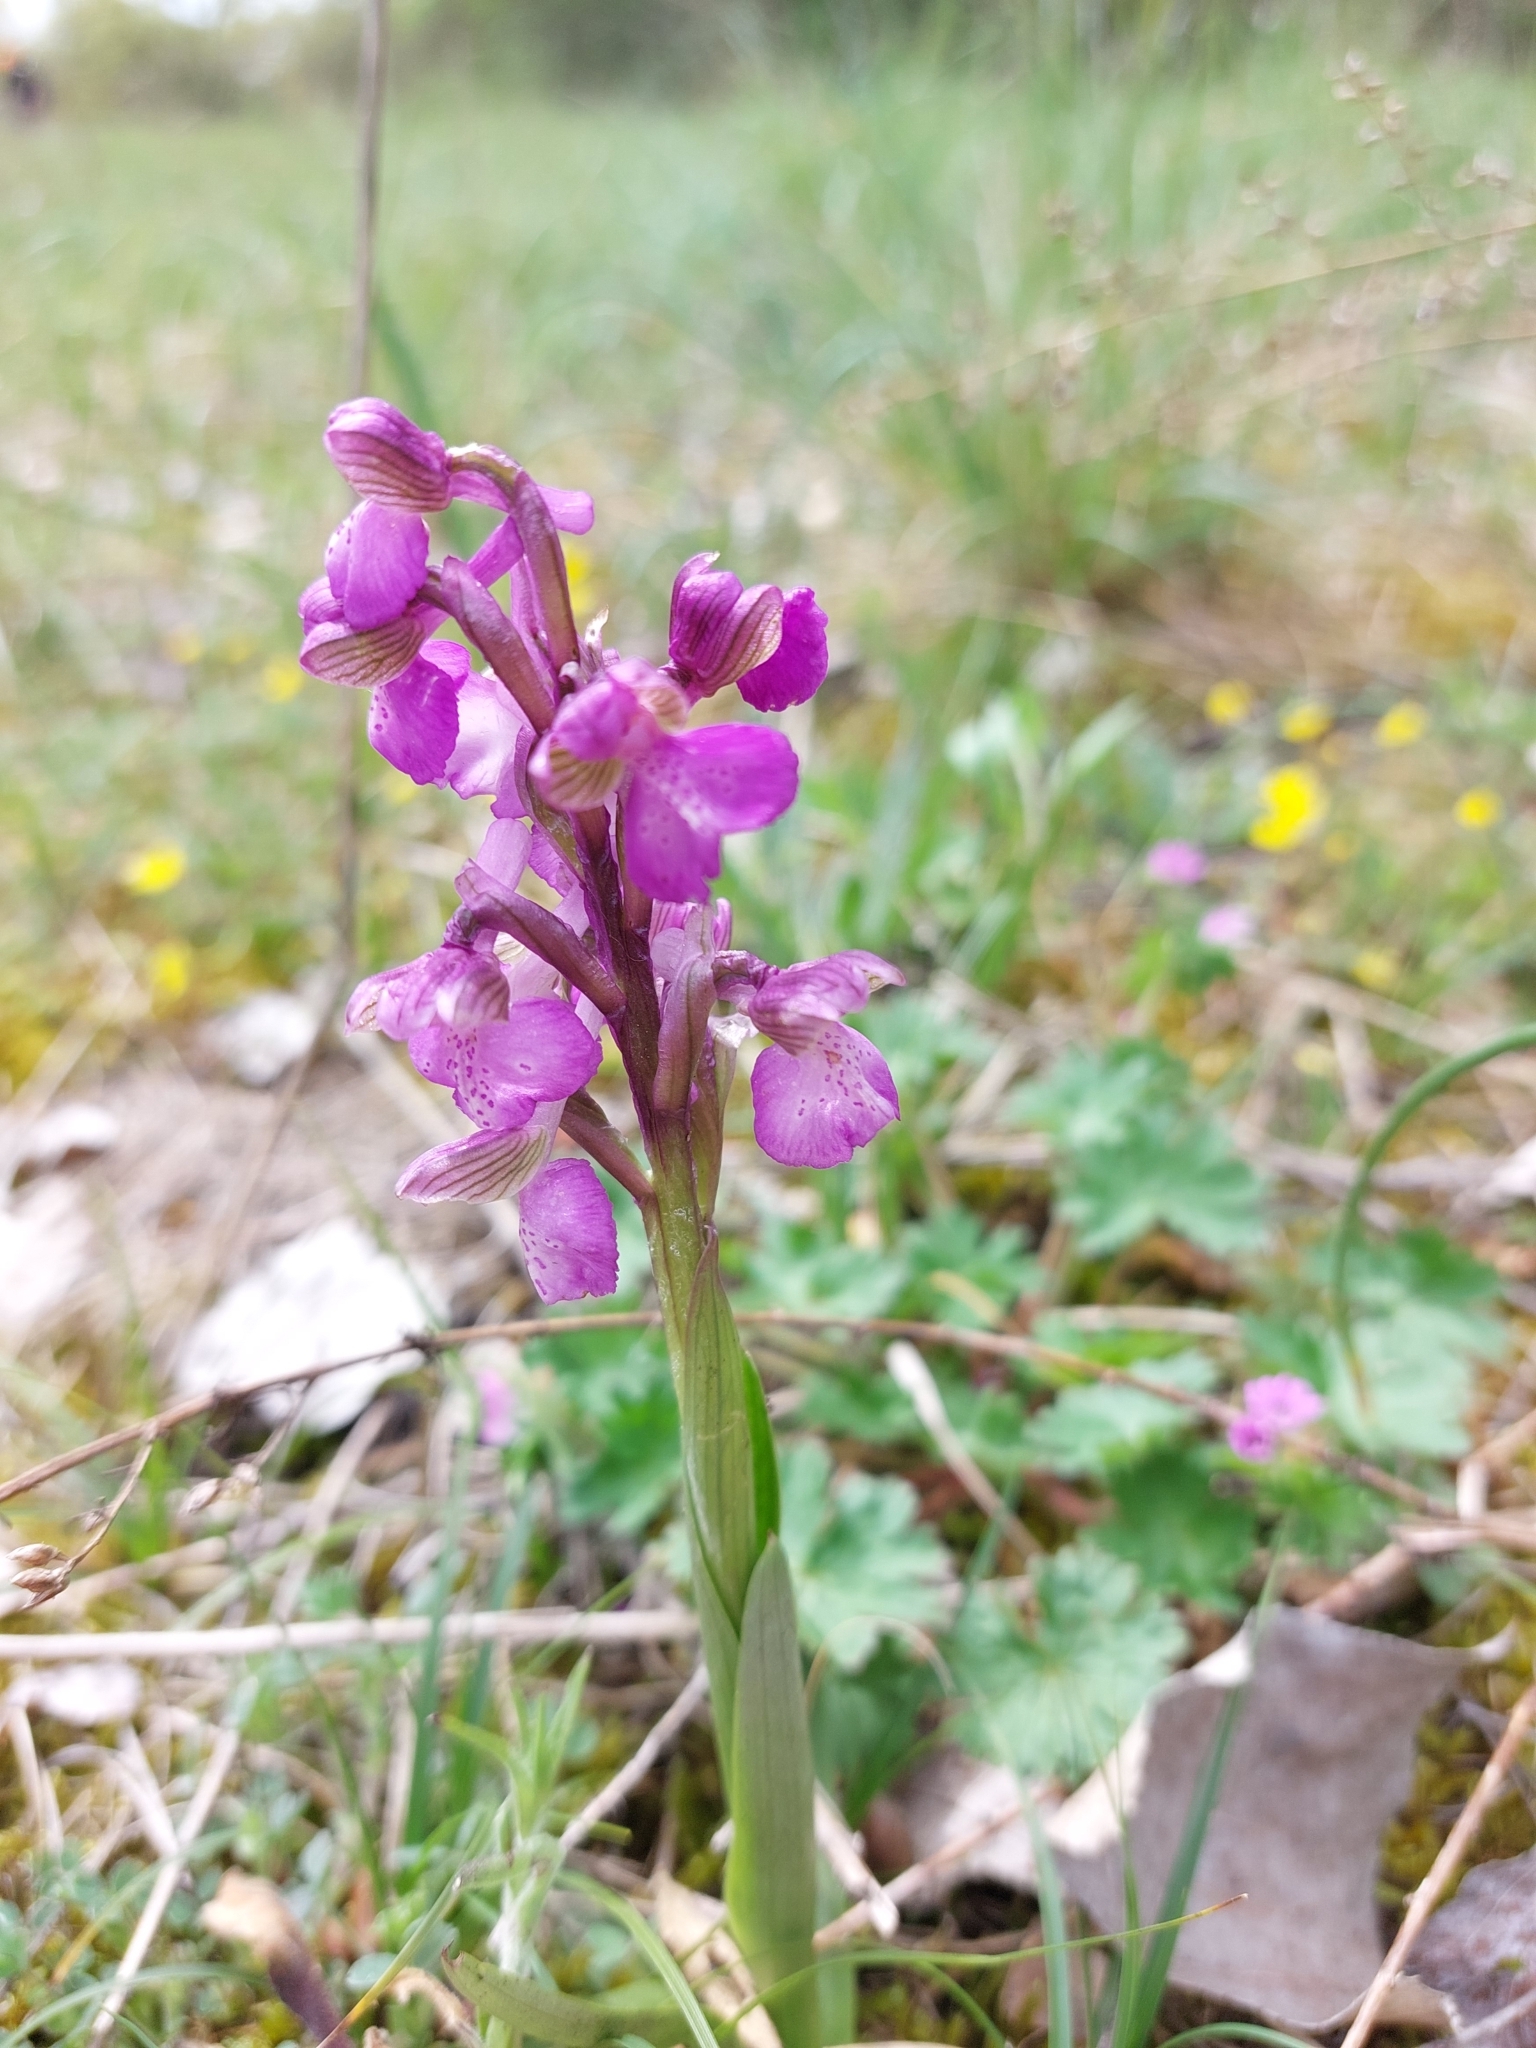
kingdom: Plantae
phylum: Tracheophyta
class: Liliopsida
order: Asparagales
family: Orchidaceae
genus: Anacamptis
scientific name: Anacamptis morio
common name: Green-winged orchid
